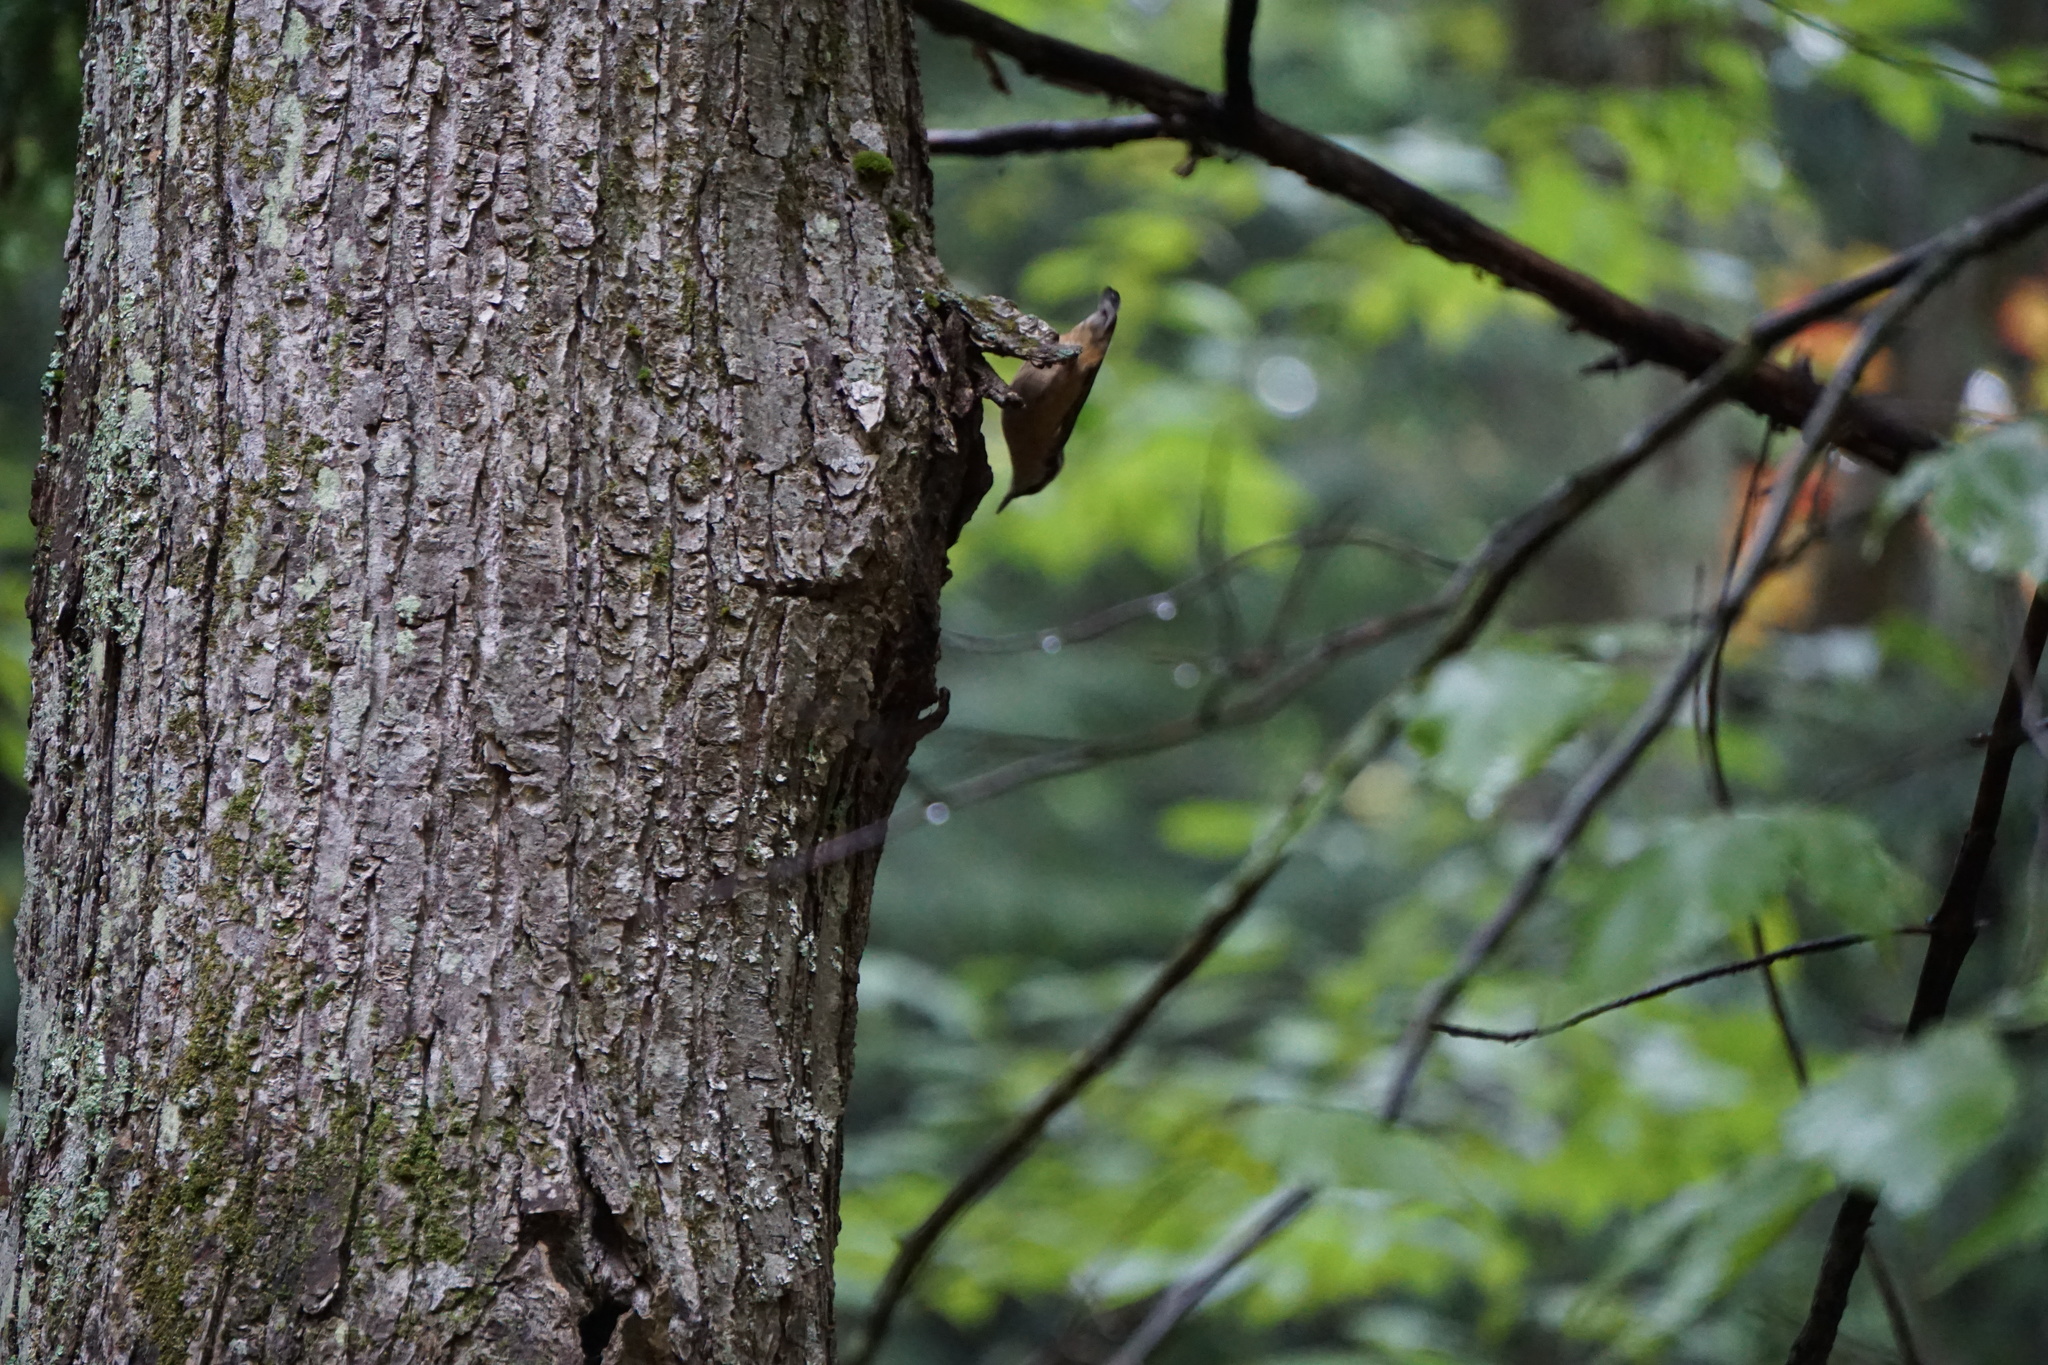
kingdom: Animalia
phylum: Chordata
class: Aves
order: Passeriformes
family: Sittidae
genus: Sitta
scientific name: Sitta canadensis
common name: Red-breasted nuthatch
